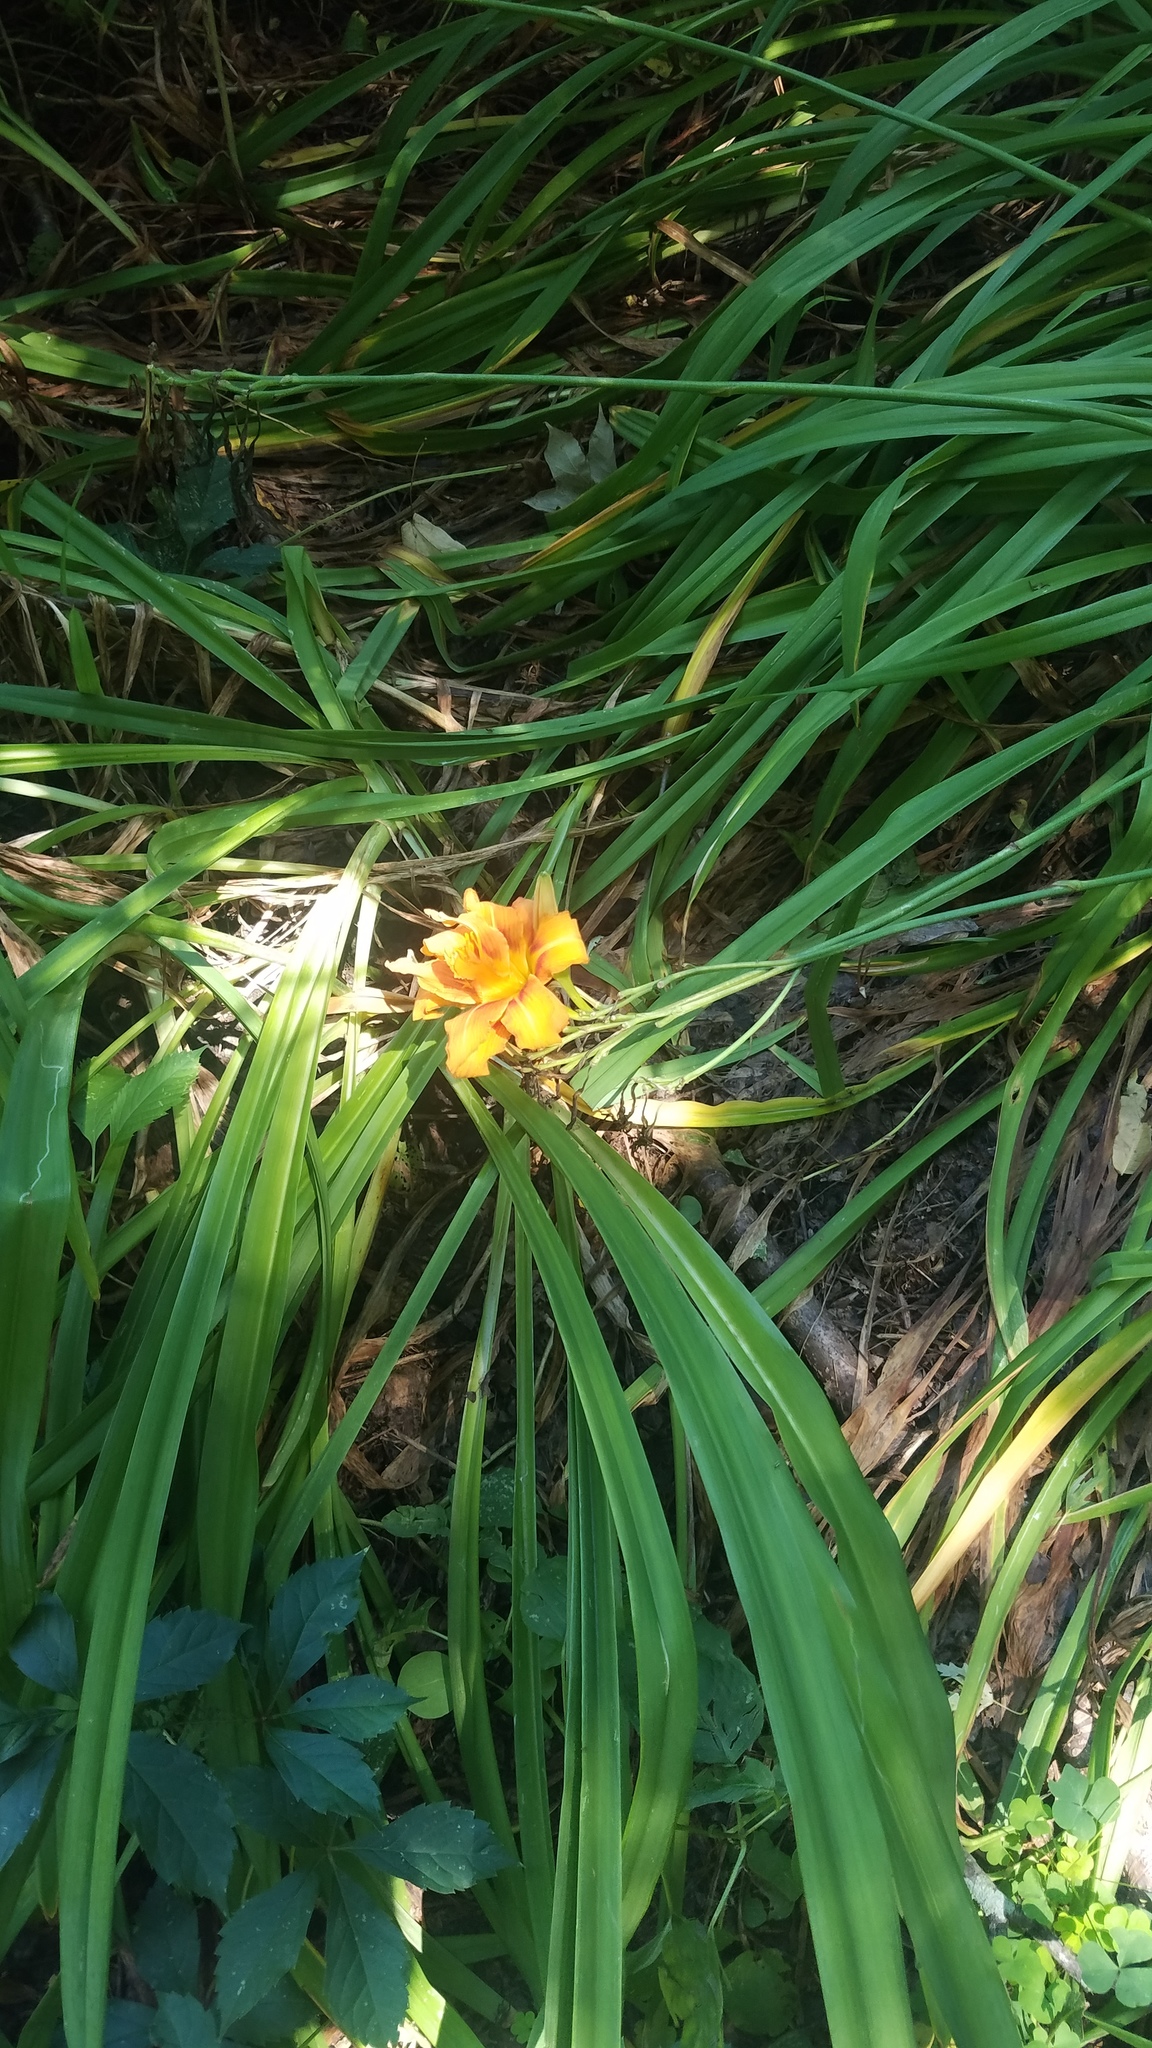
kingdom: Plantae
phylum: Tracheophyta
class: Liliopsida
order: Asparagales
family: Asphodelaceae
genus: Hemerocallis
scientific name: Hemerocallis fulva
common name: Orange day-lily
